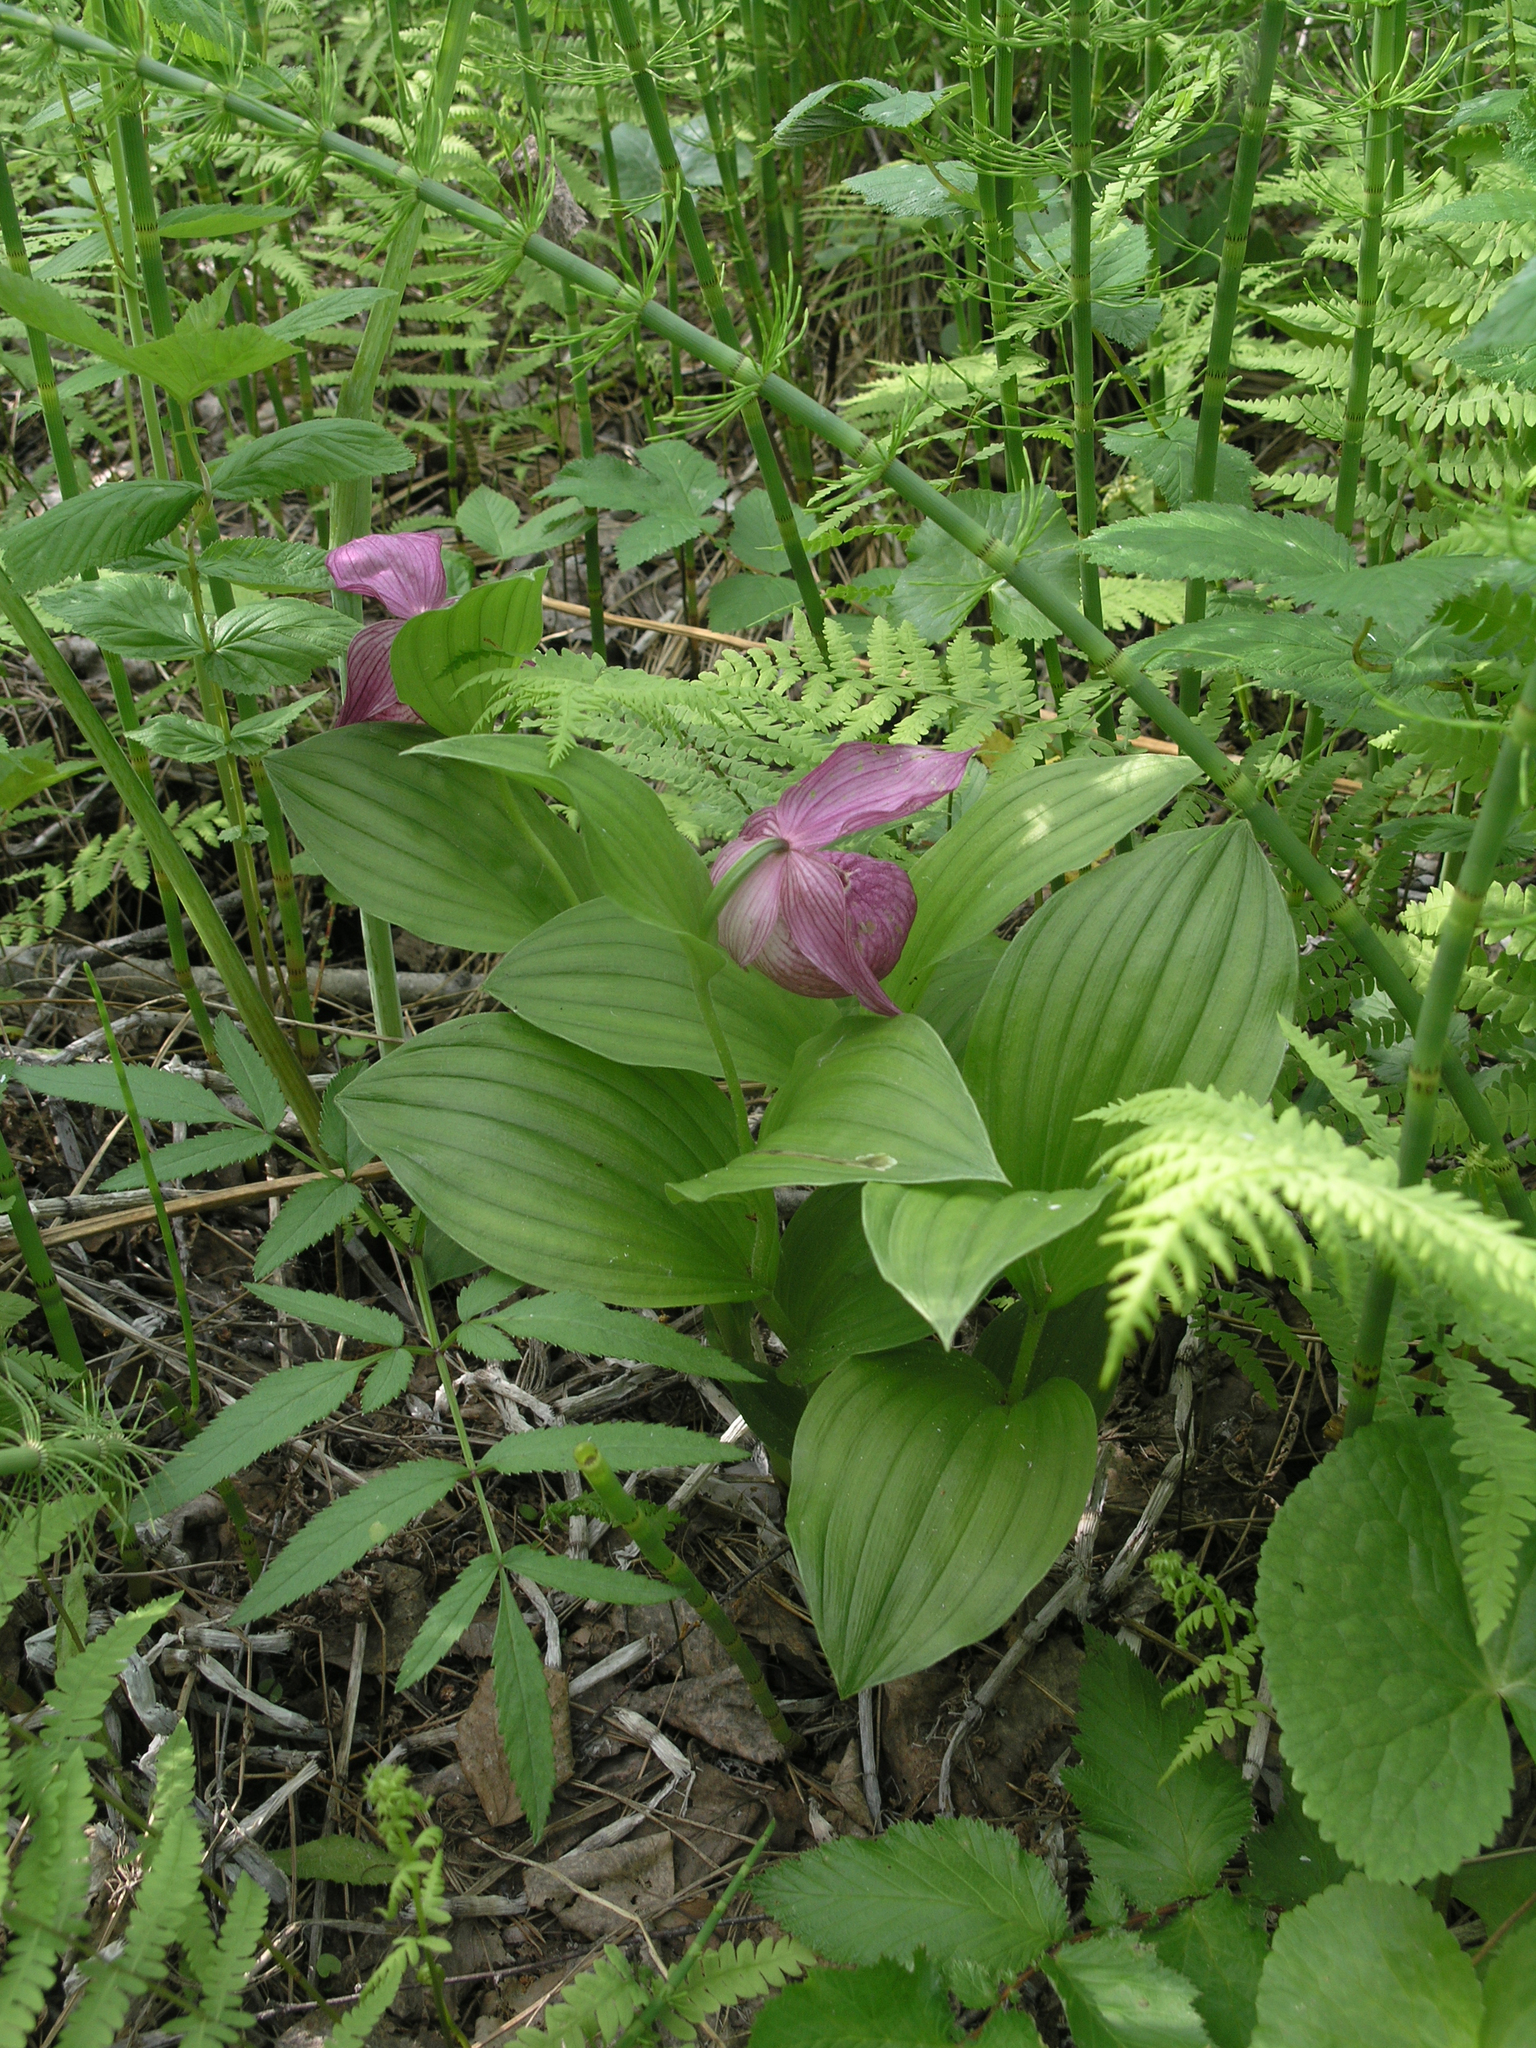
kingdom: Plantae
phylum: Tracheophyta
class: Liliopsida
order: Asparagales
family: Orchidaceae
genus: Cypripedium
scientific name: Cypripedium macranthos
